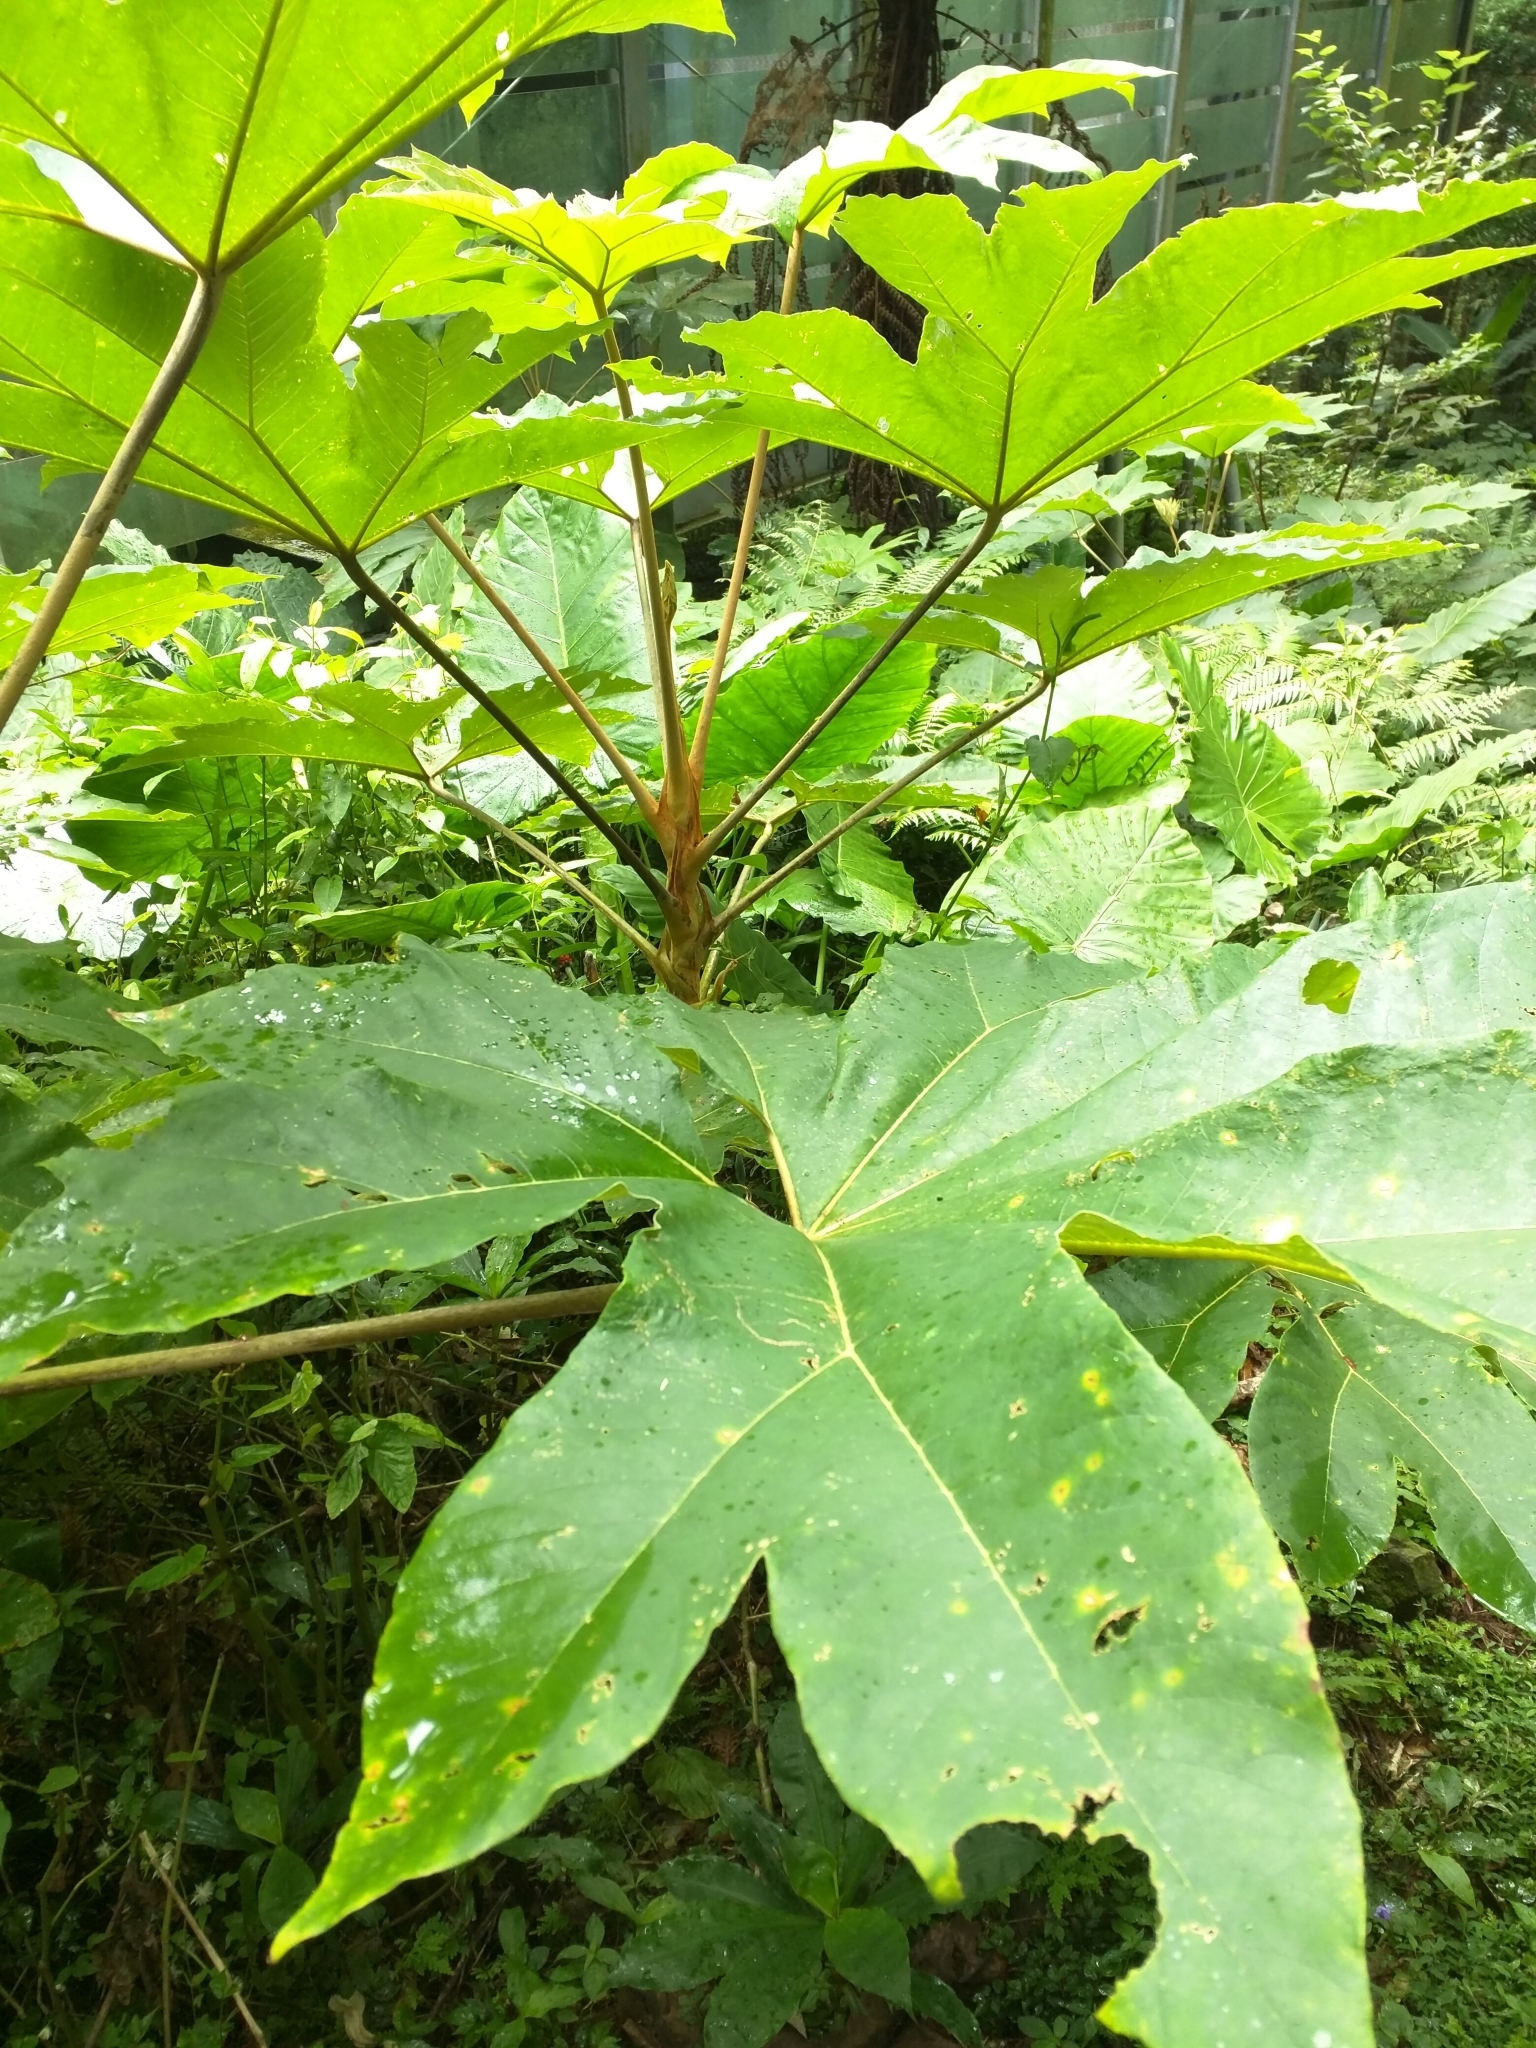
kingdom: Plantae
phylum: Tracheophyta
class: Magnoliopsida
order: Apiales
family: Araliaceae
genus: Tetrapanax
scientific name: Tetrapanax papyrifer
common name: Rice-paper plant
